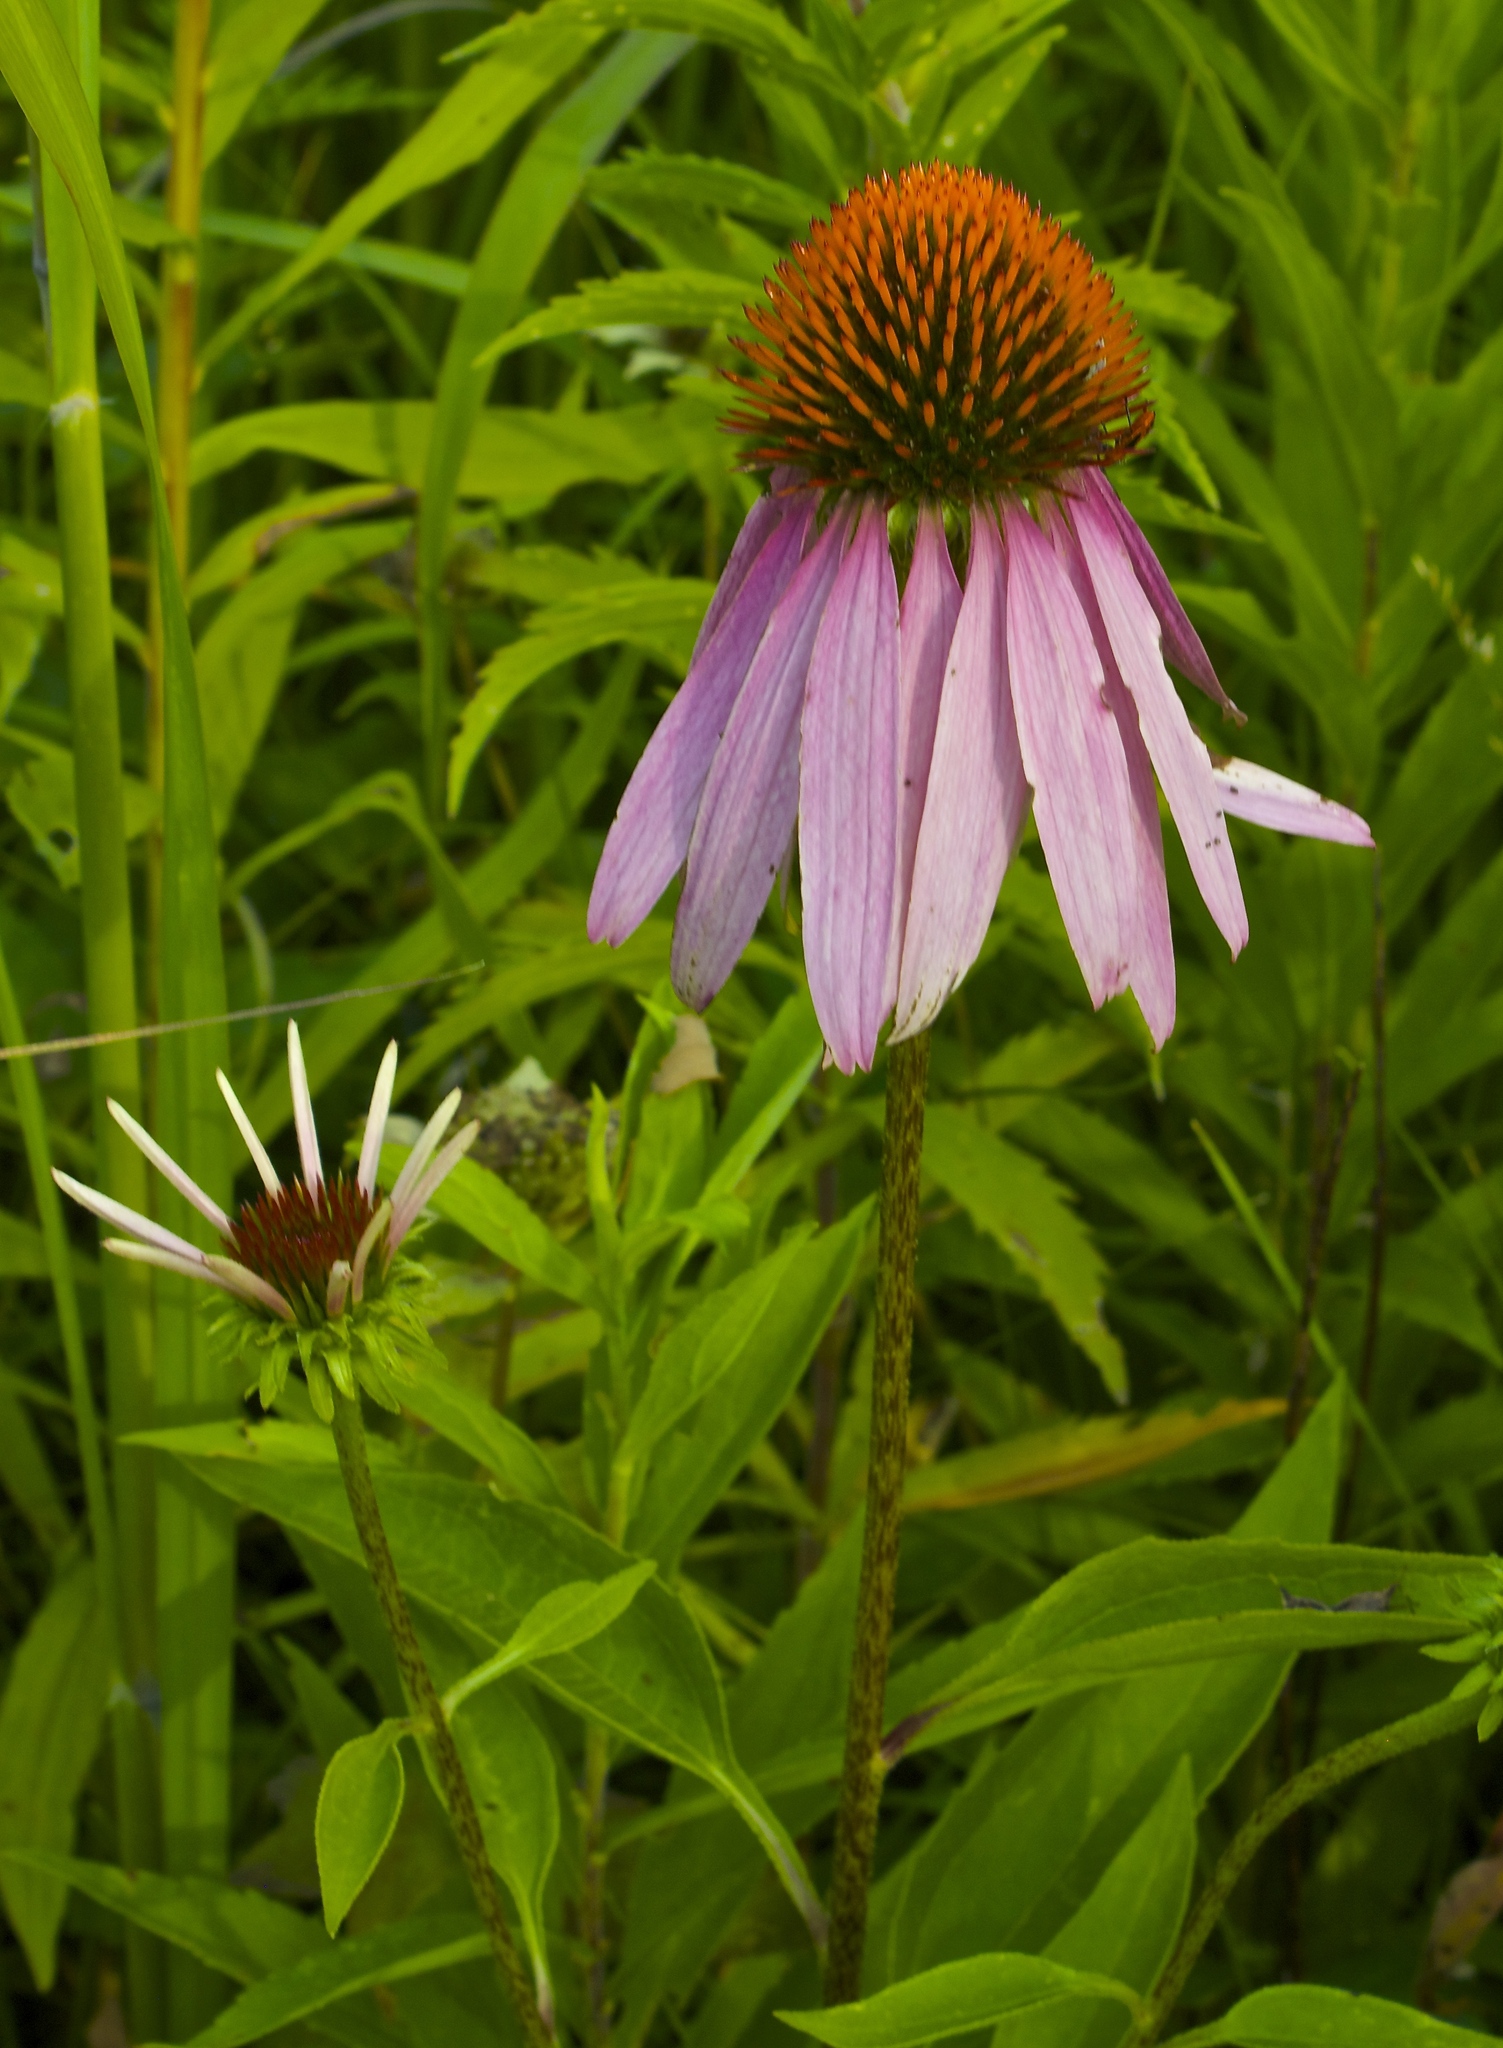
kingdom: Plantae
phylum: Tracheophyta
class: Magnoliopsida
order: Asterales
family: Asteraceae
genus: Echinacea
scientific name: Echinacea purpurea
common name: Broad-leaved purple coneflower
